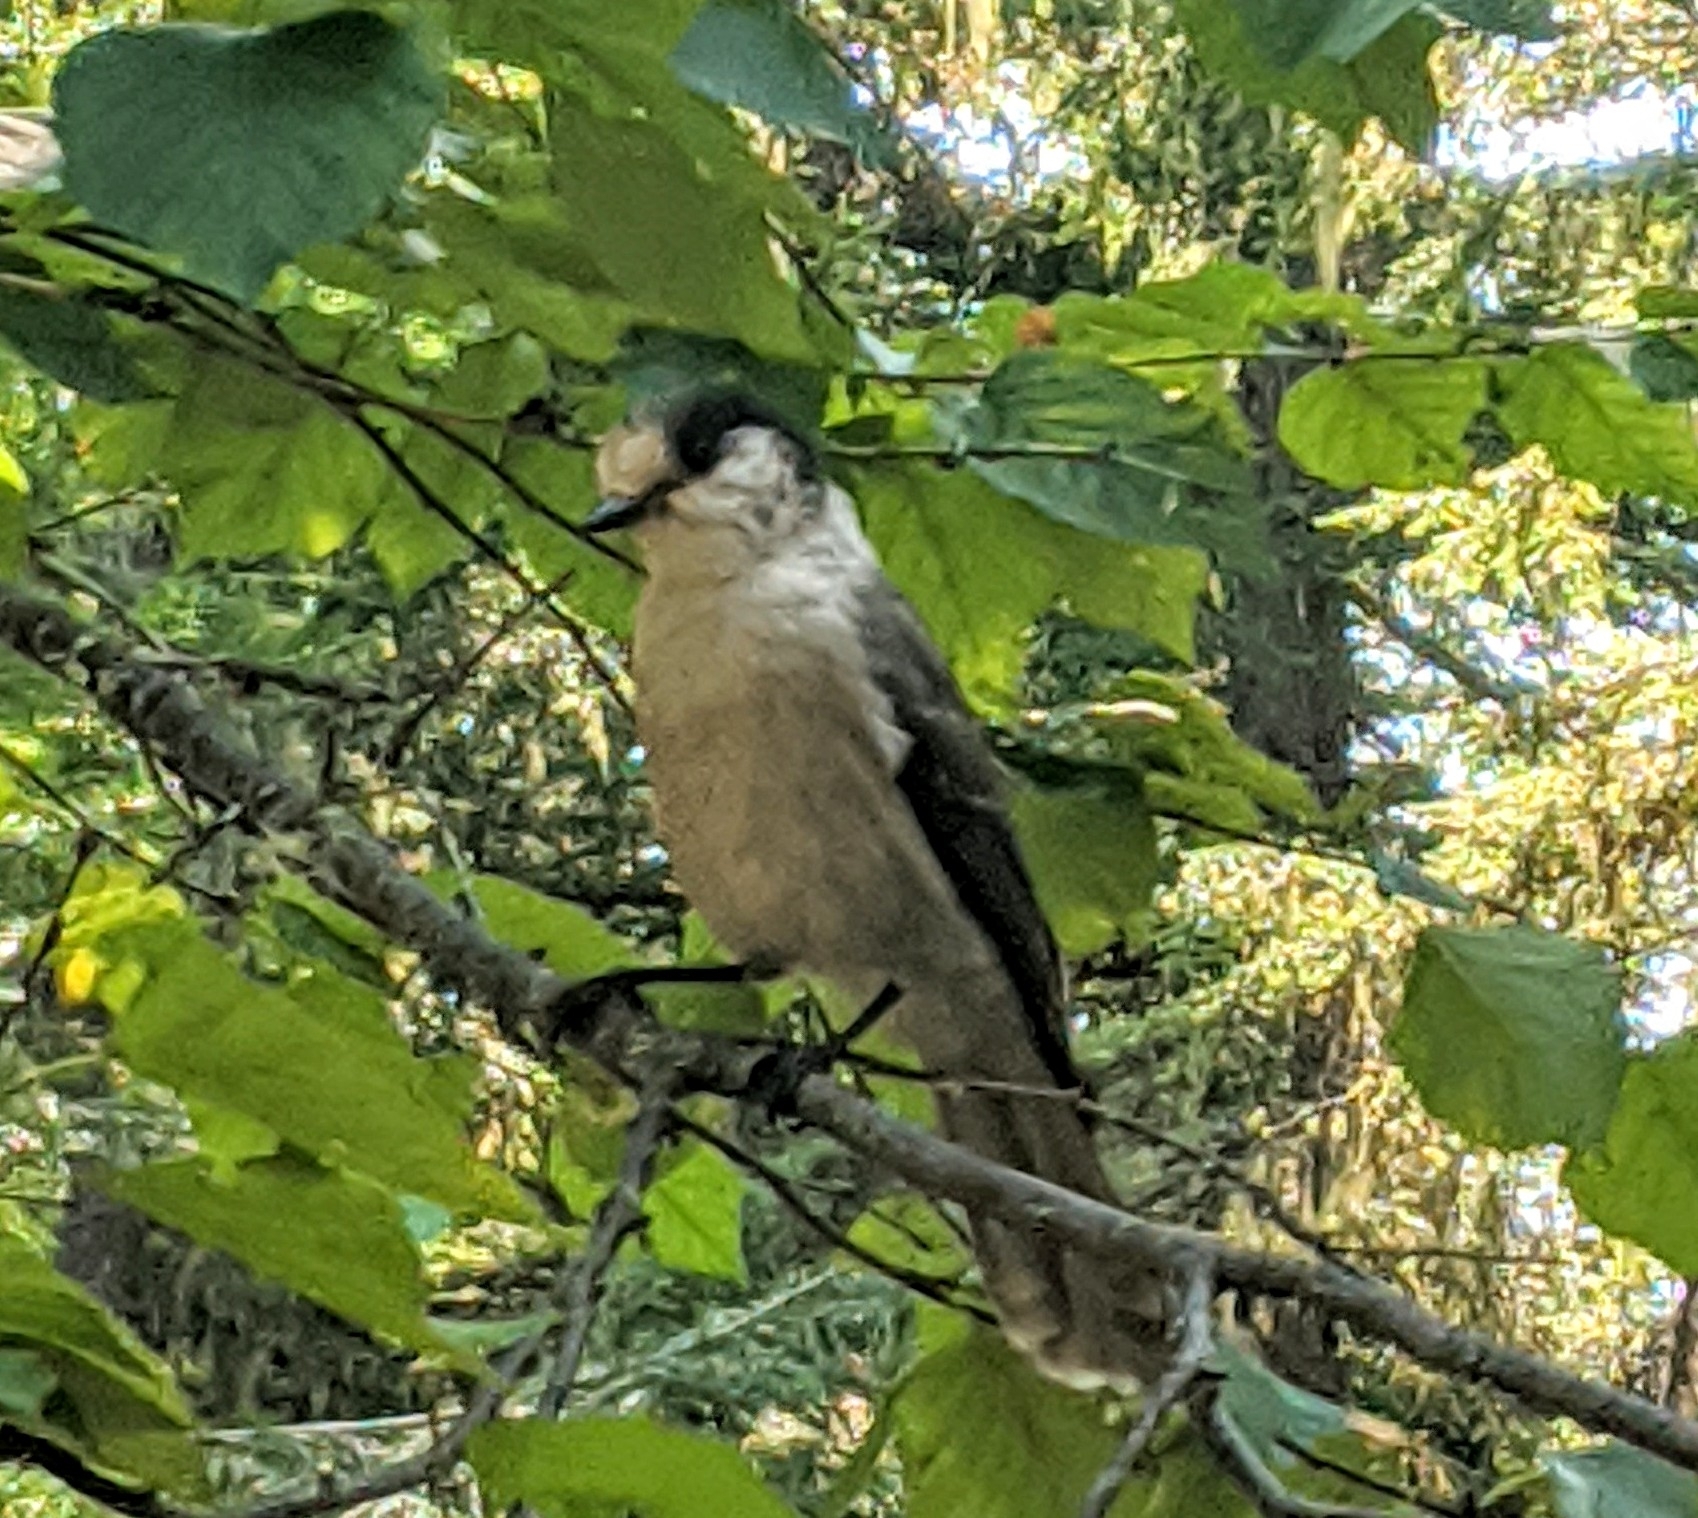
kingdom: Animalia
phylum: Chordata
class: Aves
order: Passeriformes
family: Corvidae
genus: Perisoreus
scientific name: Perisoreus canadensis
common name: Gray jay
